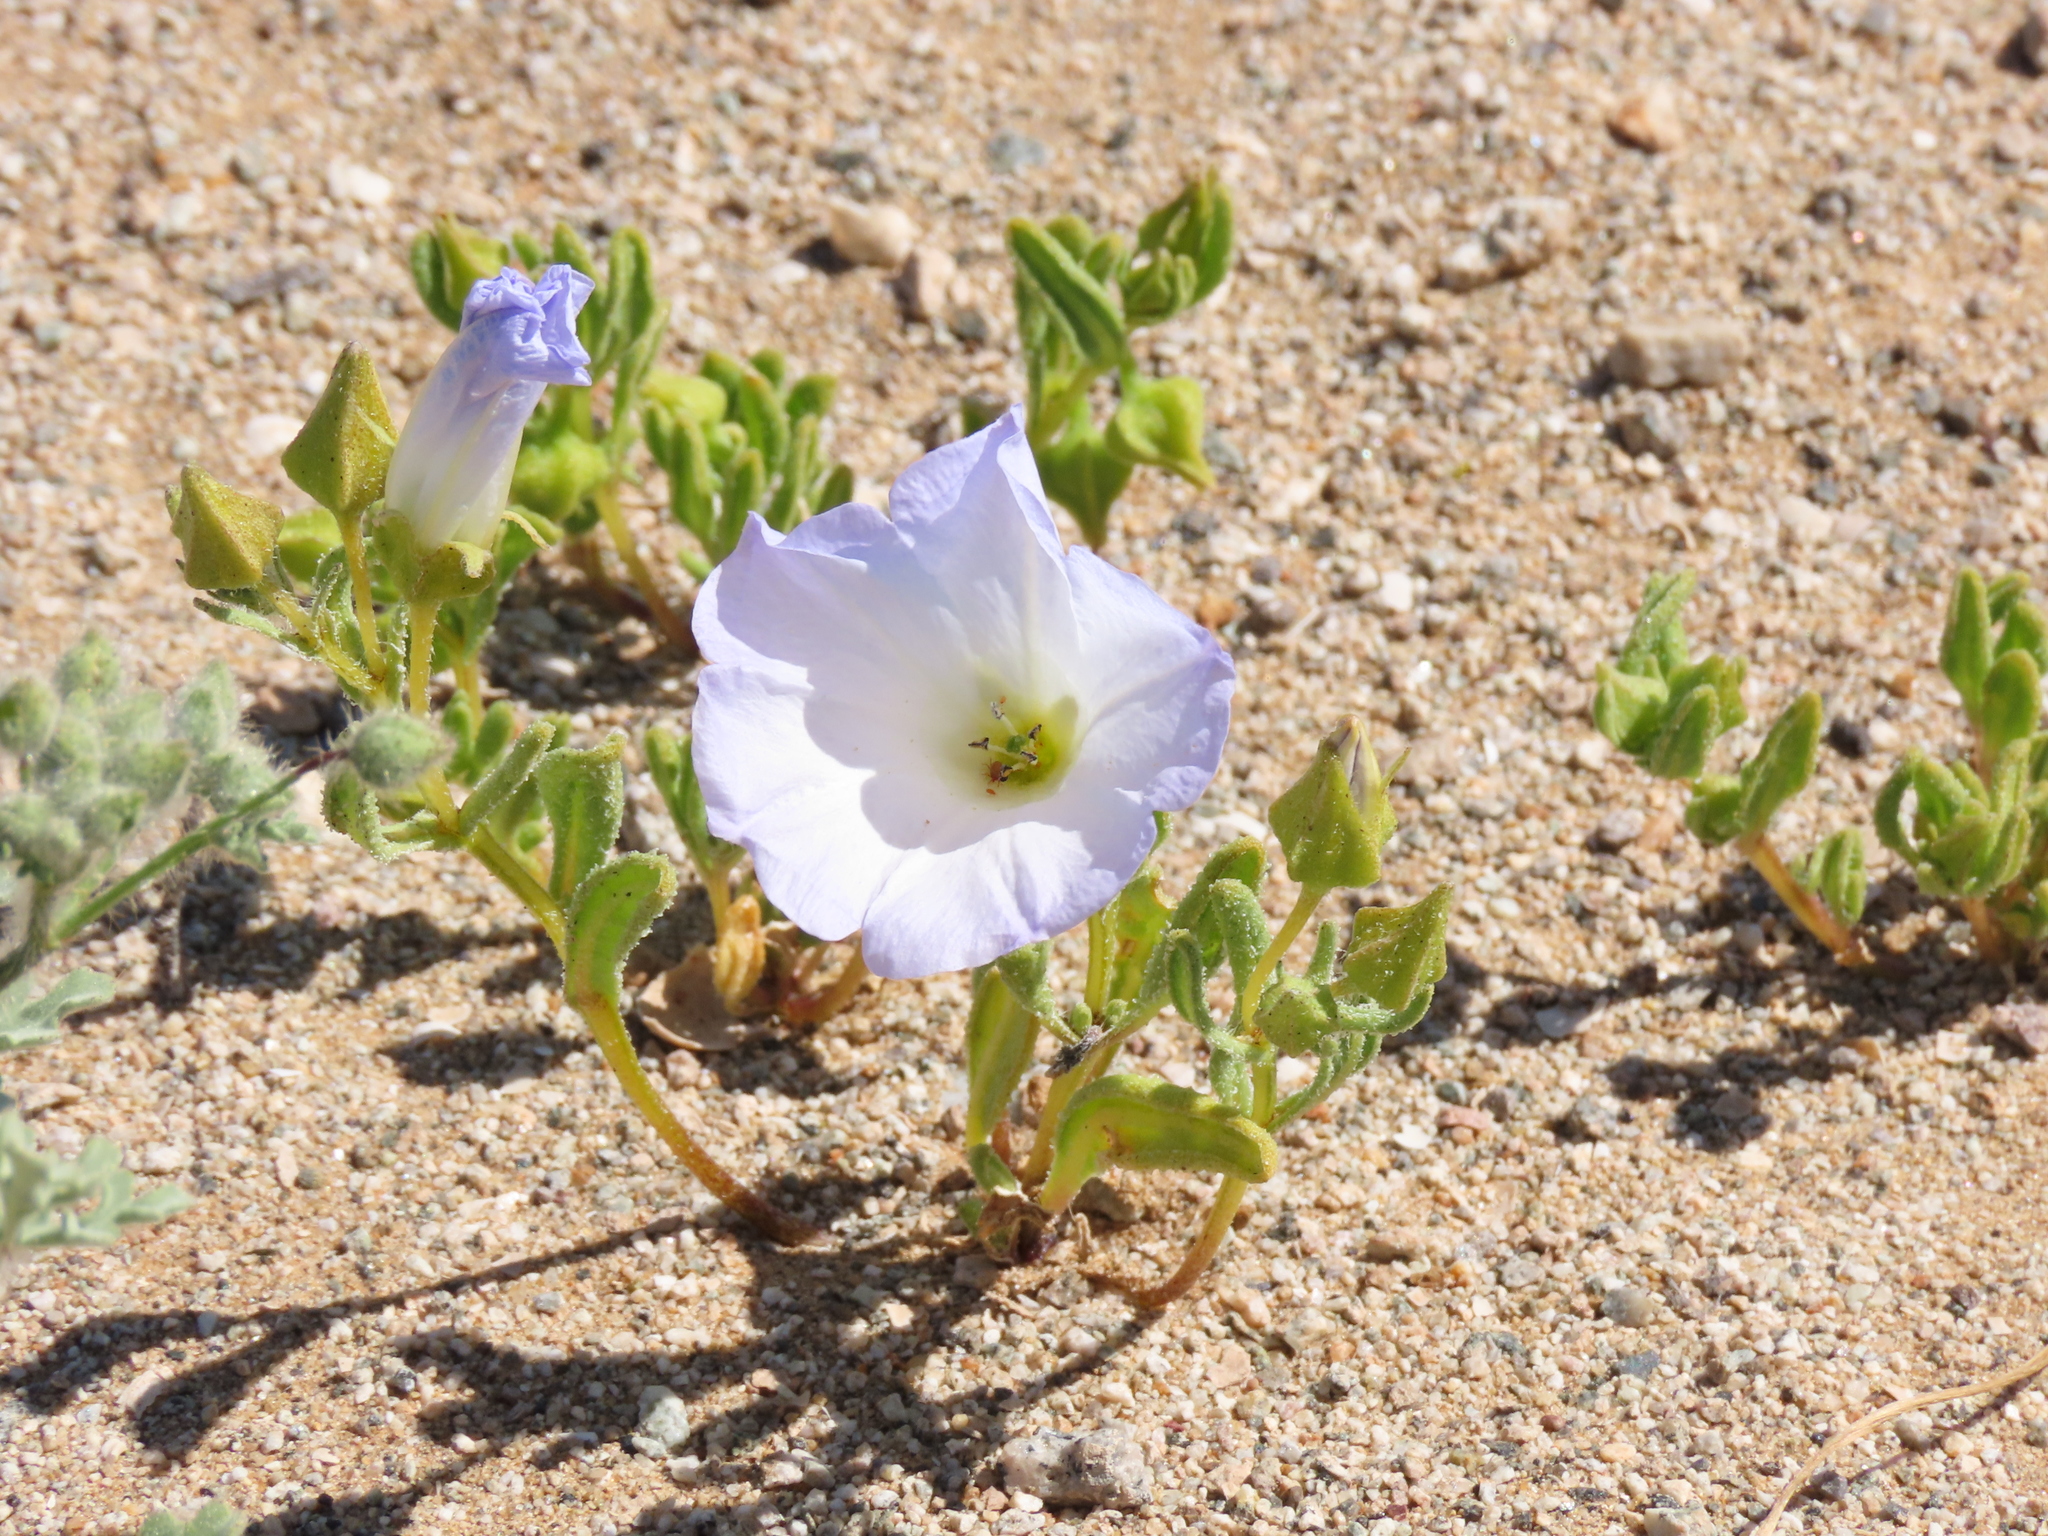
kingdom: Plantae
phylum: Tracheophyta
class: Magnoliopsida
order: Solanales
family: Solanaceae
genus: Nolana
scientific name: Nolana baccata
